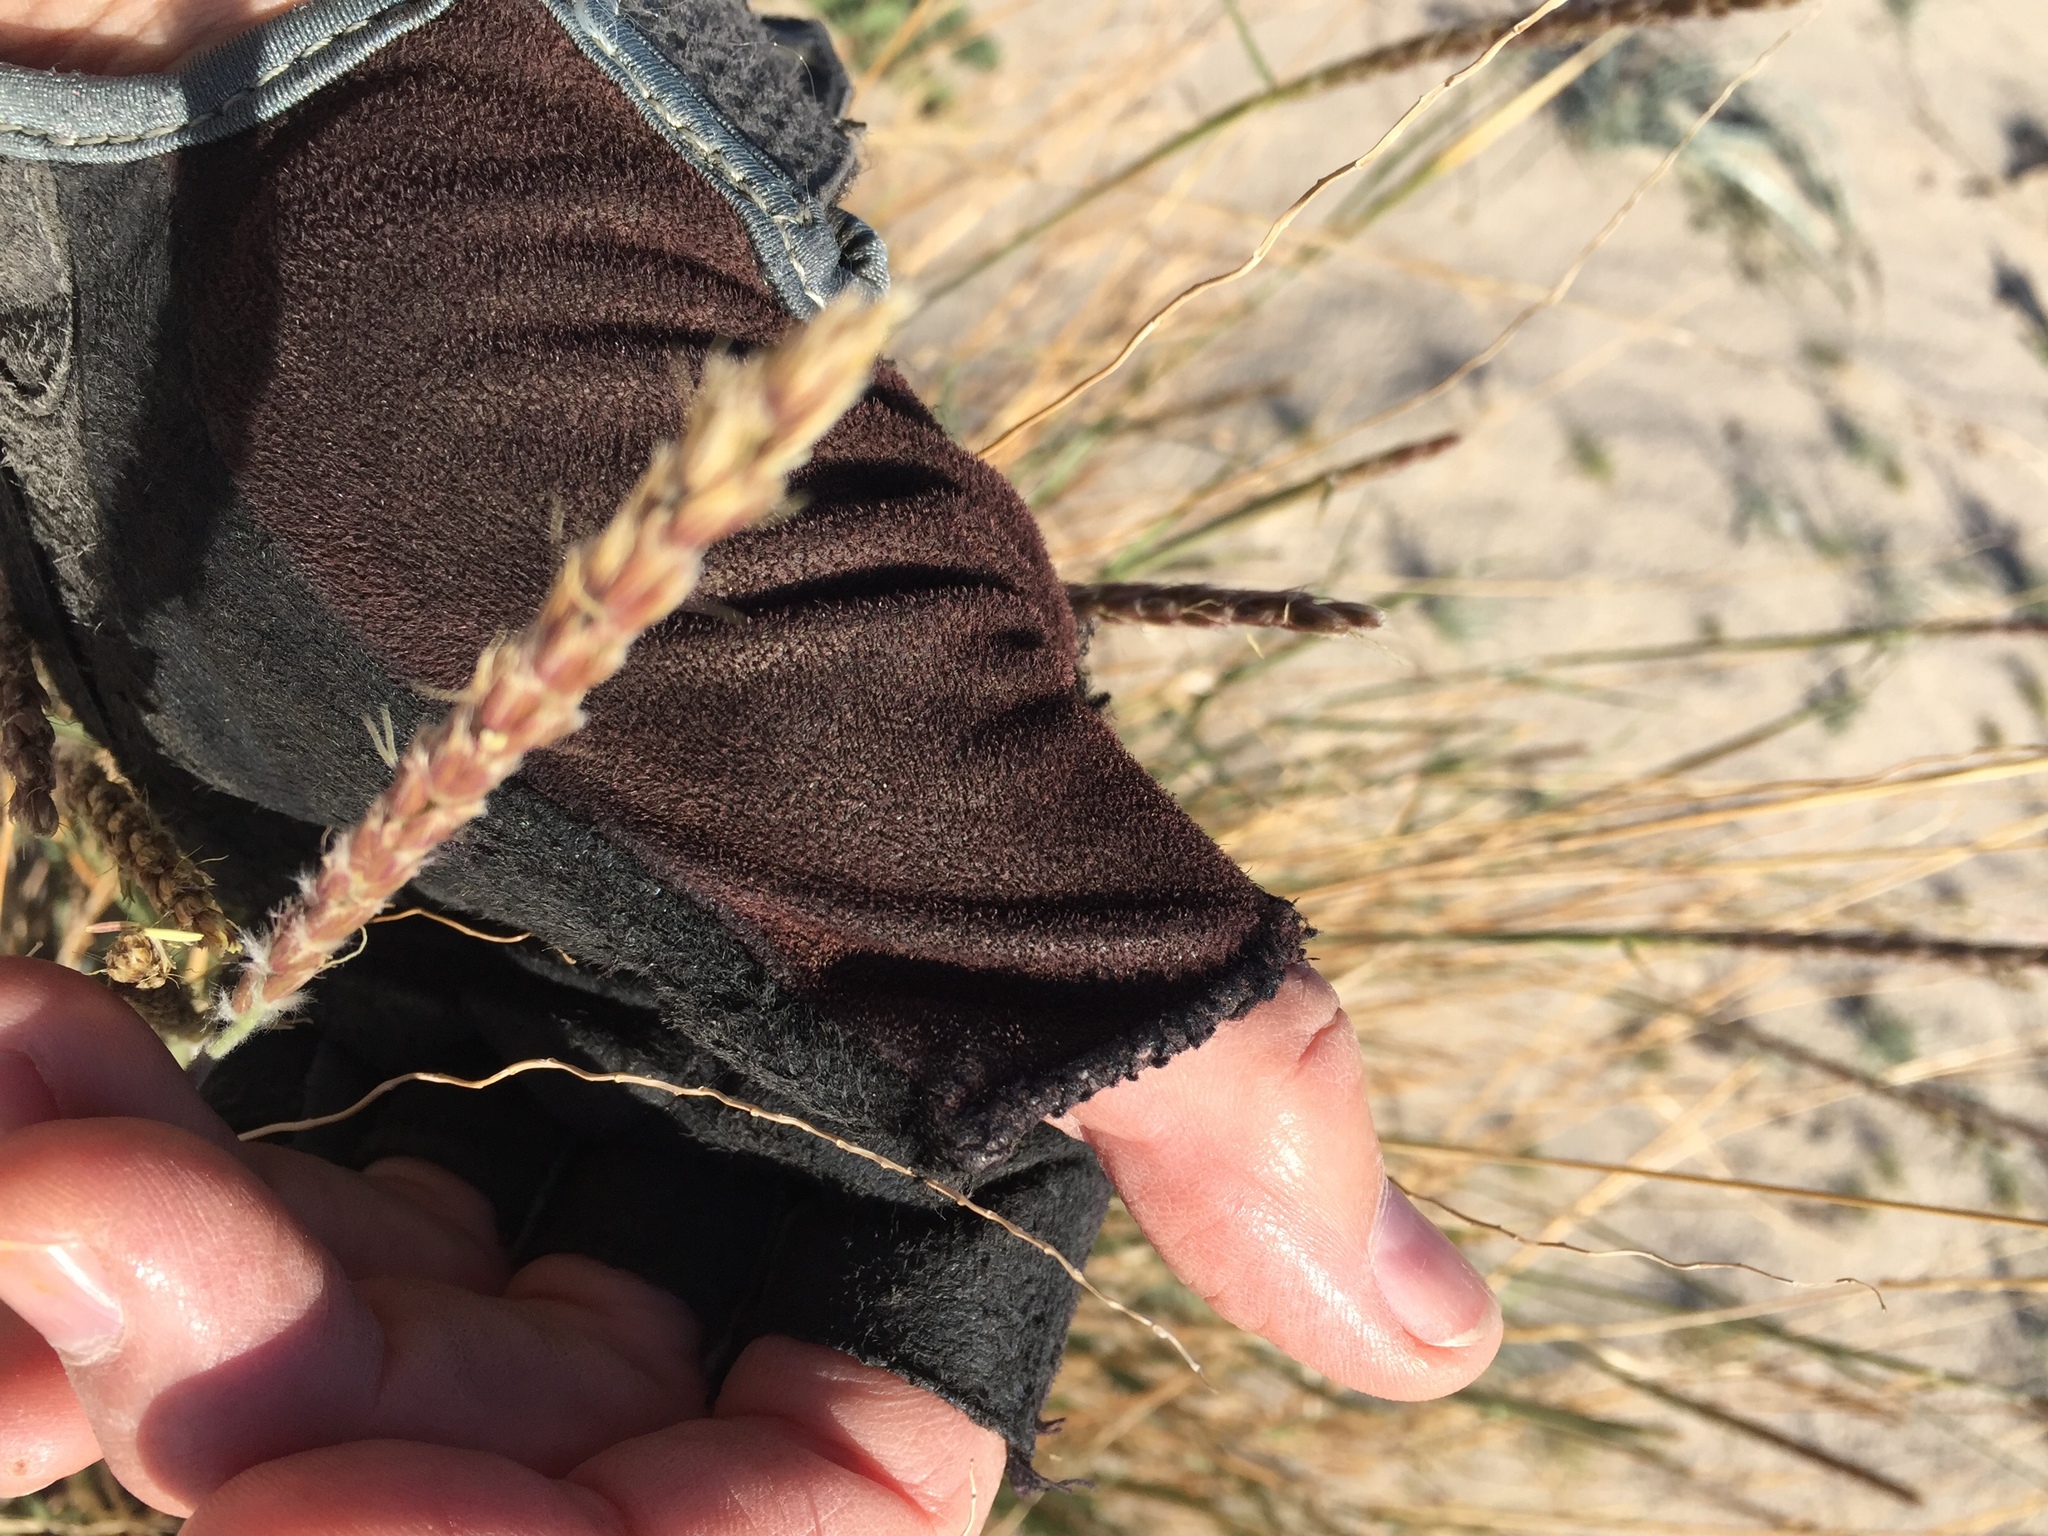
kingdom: Plantae
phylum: Tracheophyta
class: Liliopsida
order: Poales
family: Poaceae
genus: Hilaria
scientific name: Hilaria rigida
